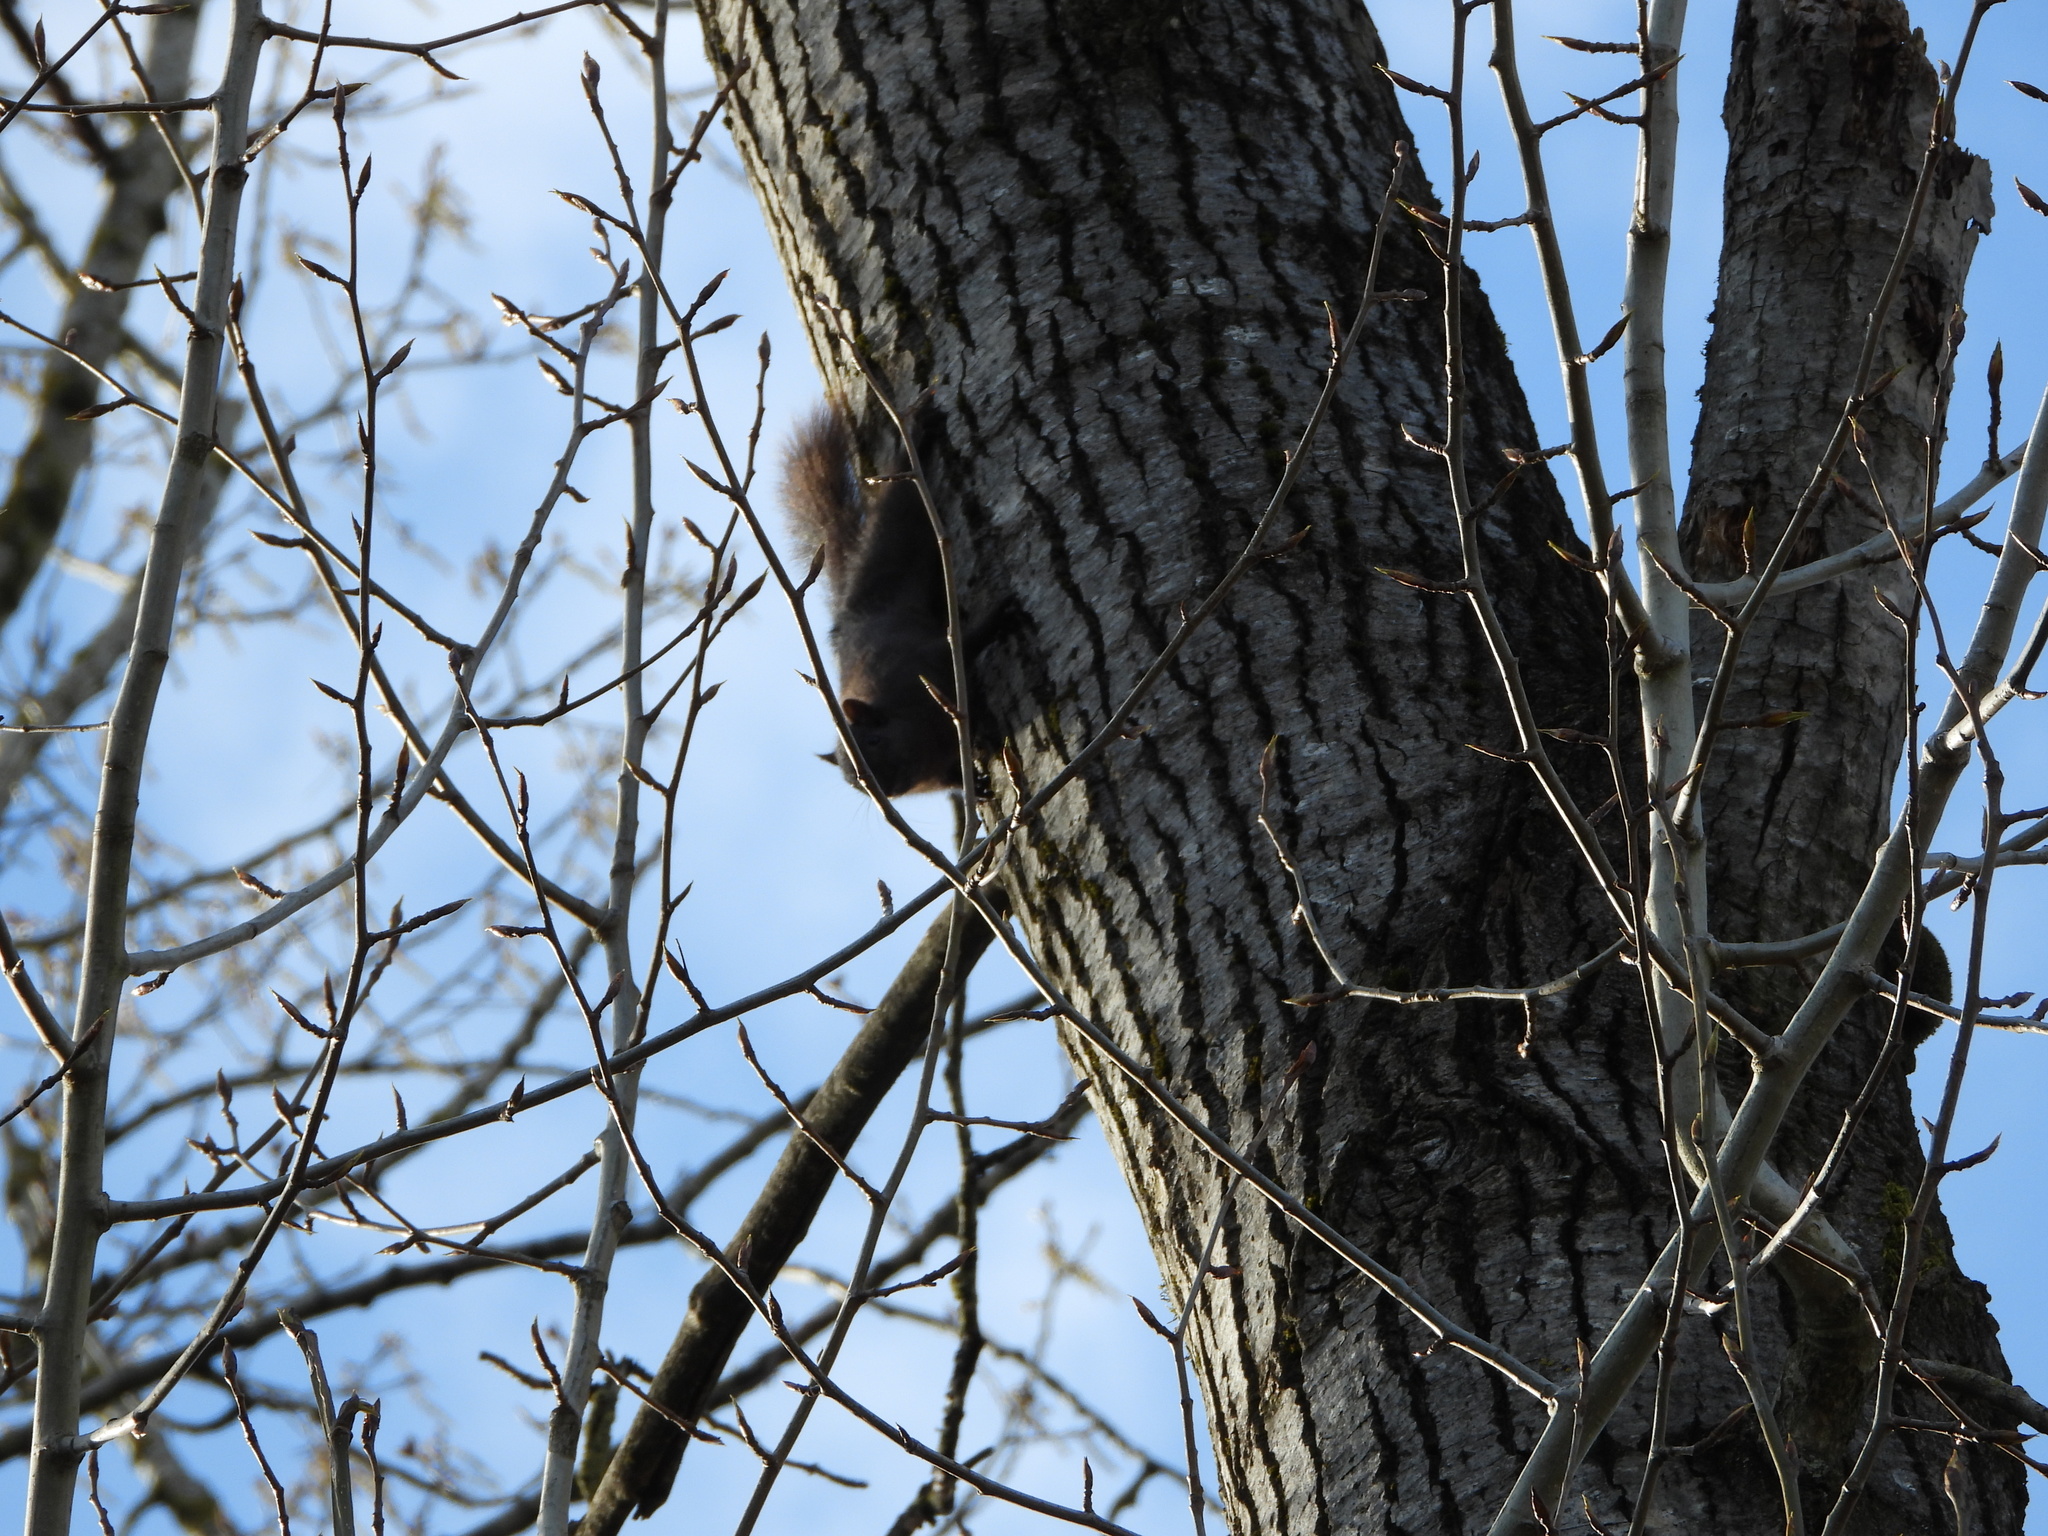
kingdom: Animalia
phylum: Chordata
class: Mammalia
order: Rodentia
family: Sciuridae
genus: Sciurus
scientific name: Sciurus carolinensis
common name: Eastern gray squirrel
